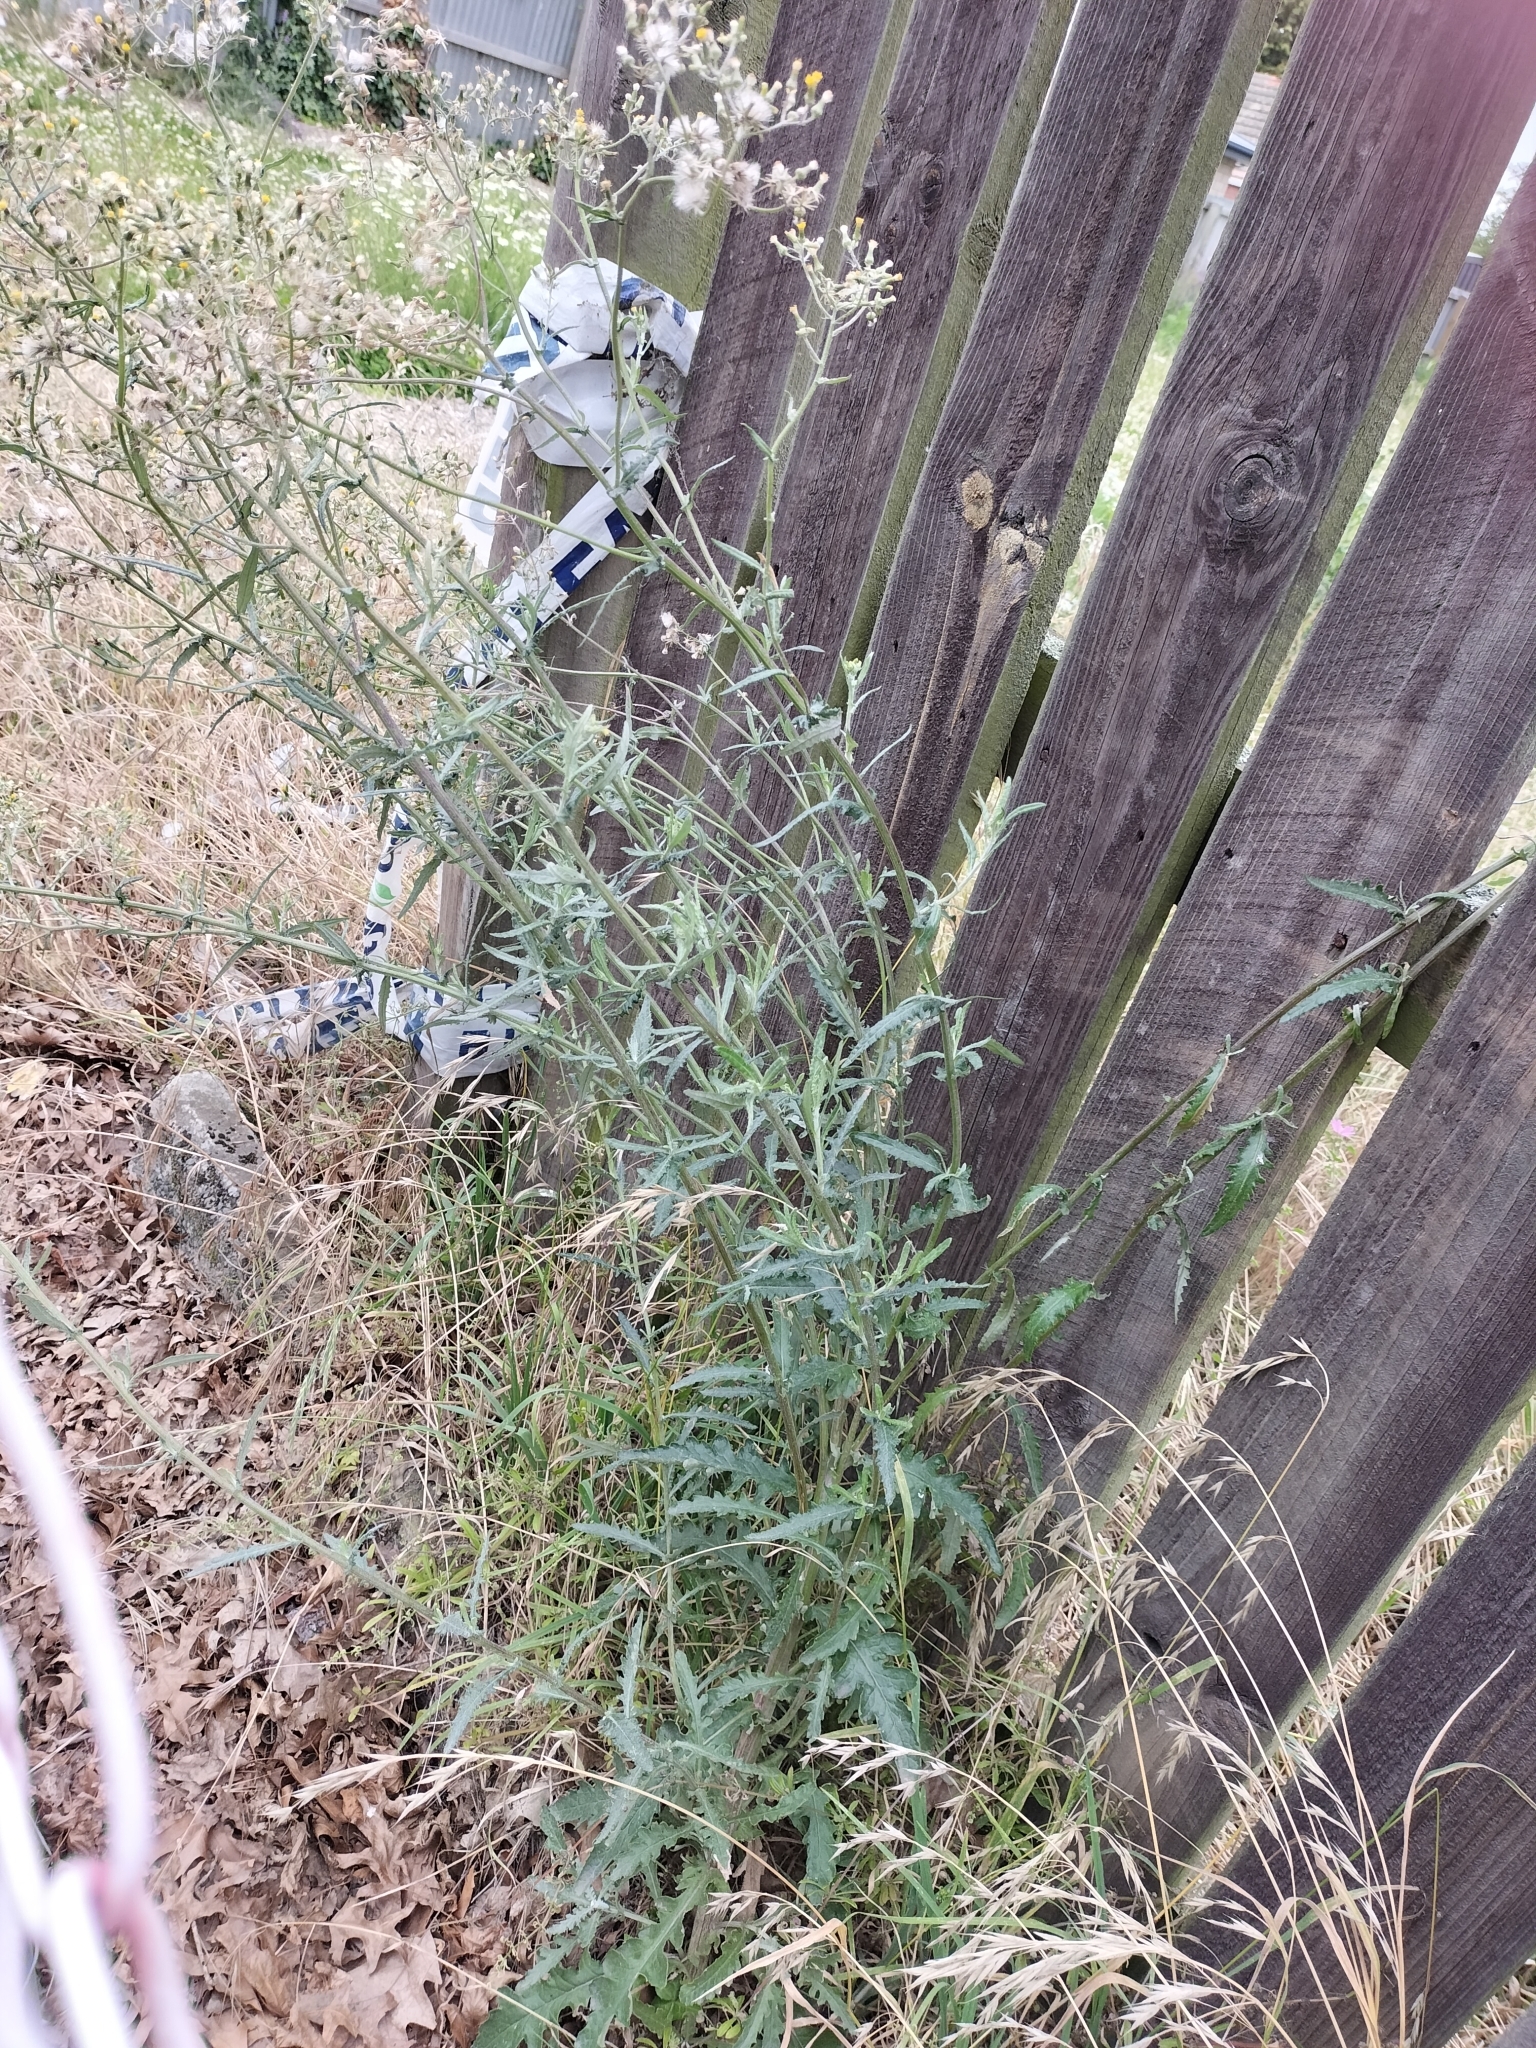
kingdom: Plantae
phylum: Tracheophyta
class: Magnoliopsida
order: Asterales
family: Asteraceae
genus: Senecio
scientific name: Senecio glomeratus
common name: Cutleaf burnweed
